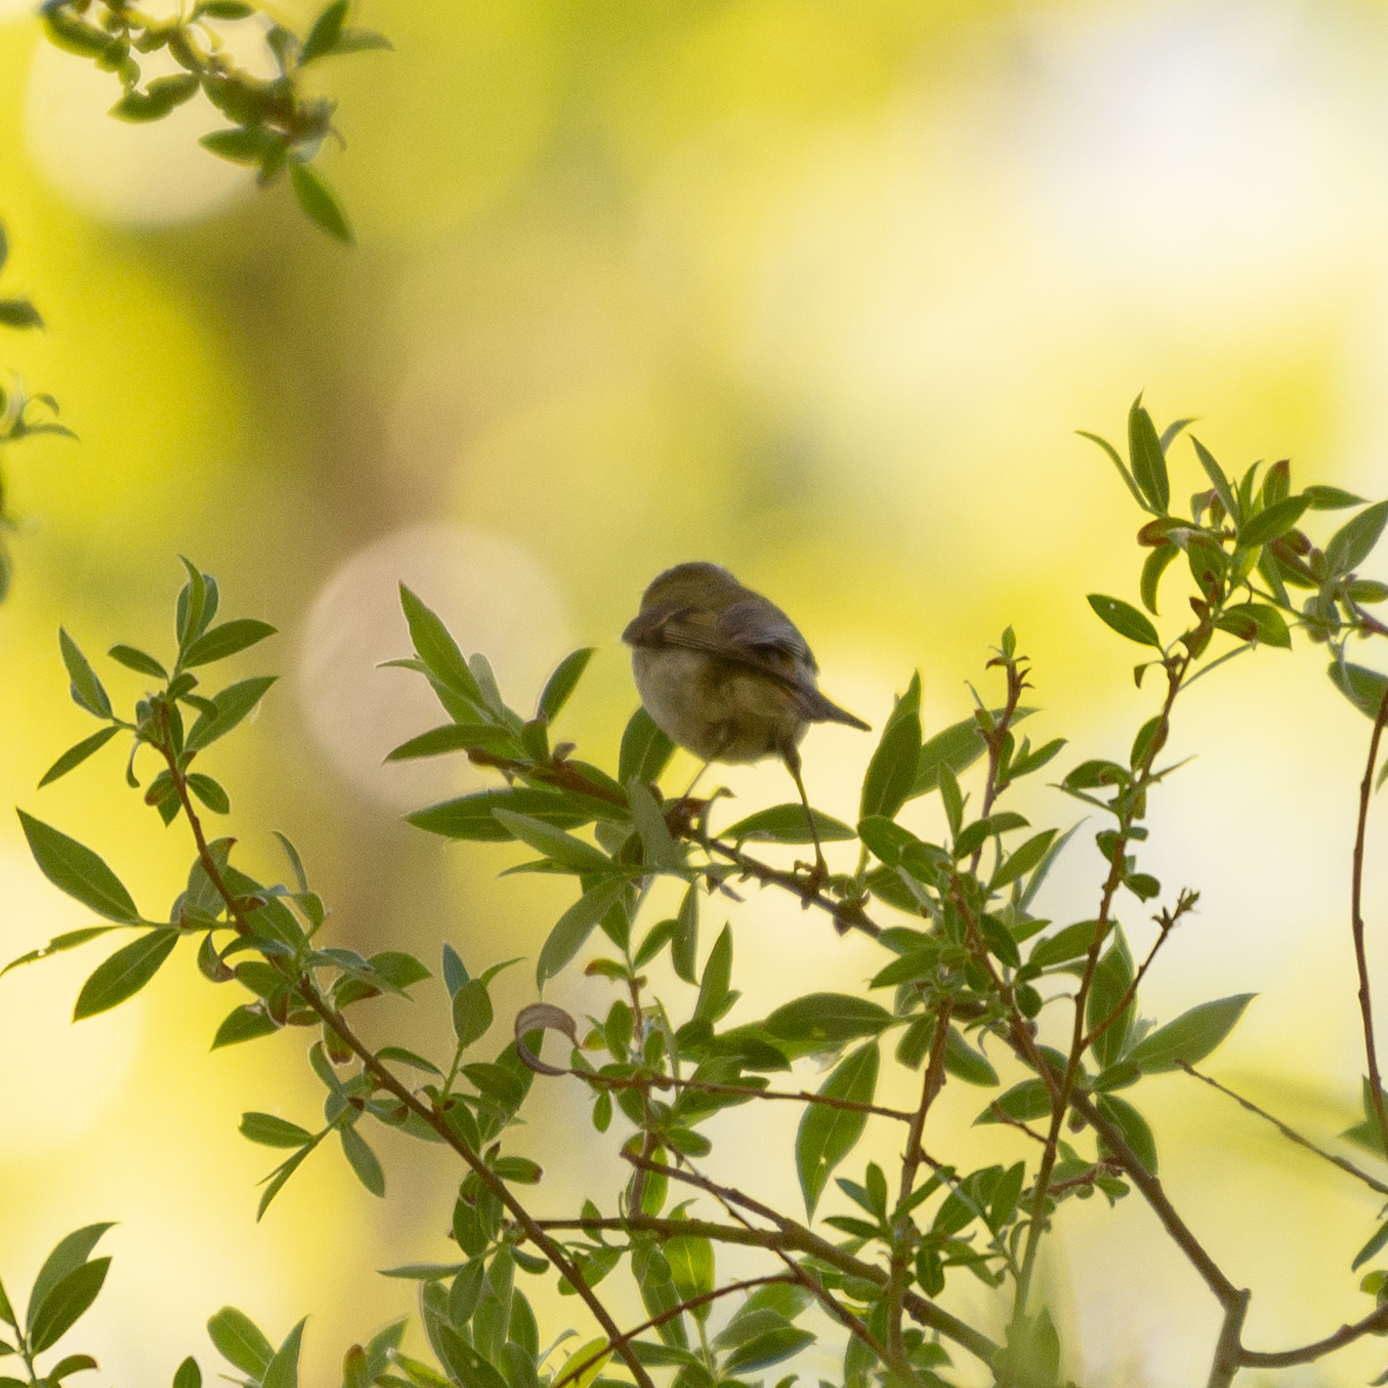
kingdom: Animalia
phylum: Chordata
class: Aves
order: Passeriformes
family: Regulidae
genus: Regulus
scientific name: Regulus ignicapilla
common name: Firecrest
